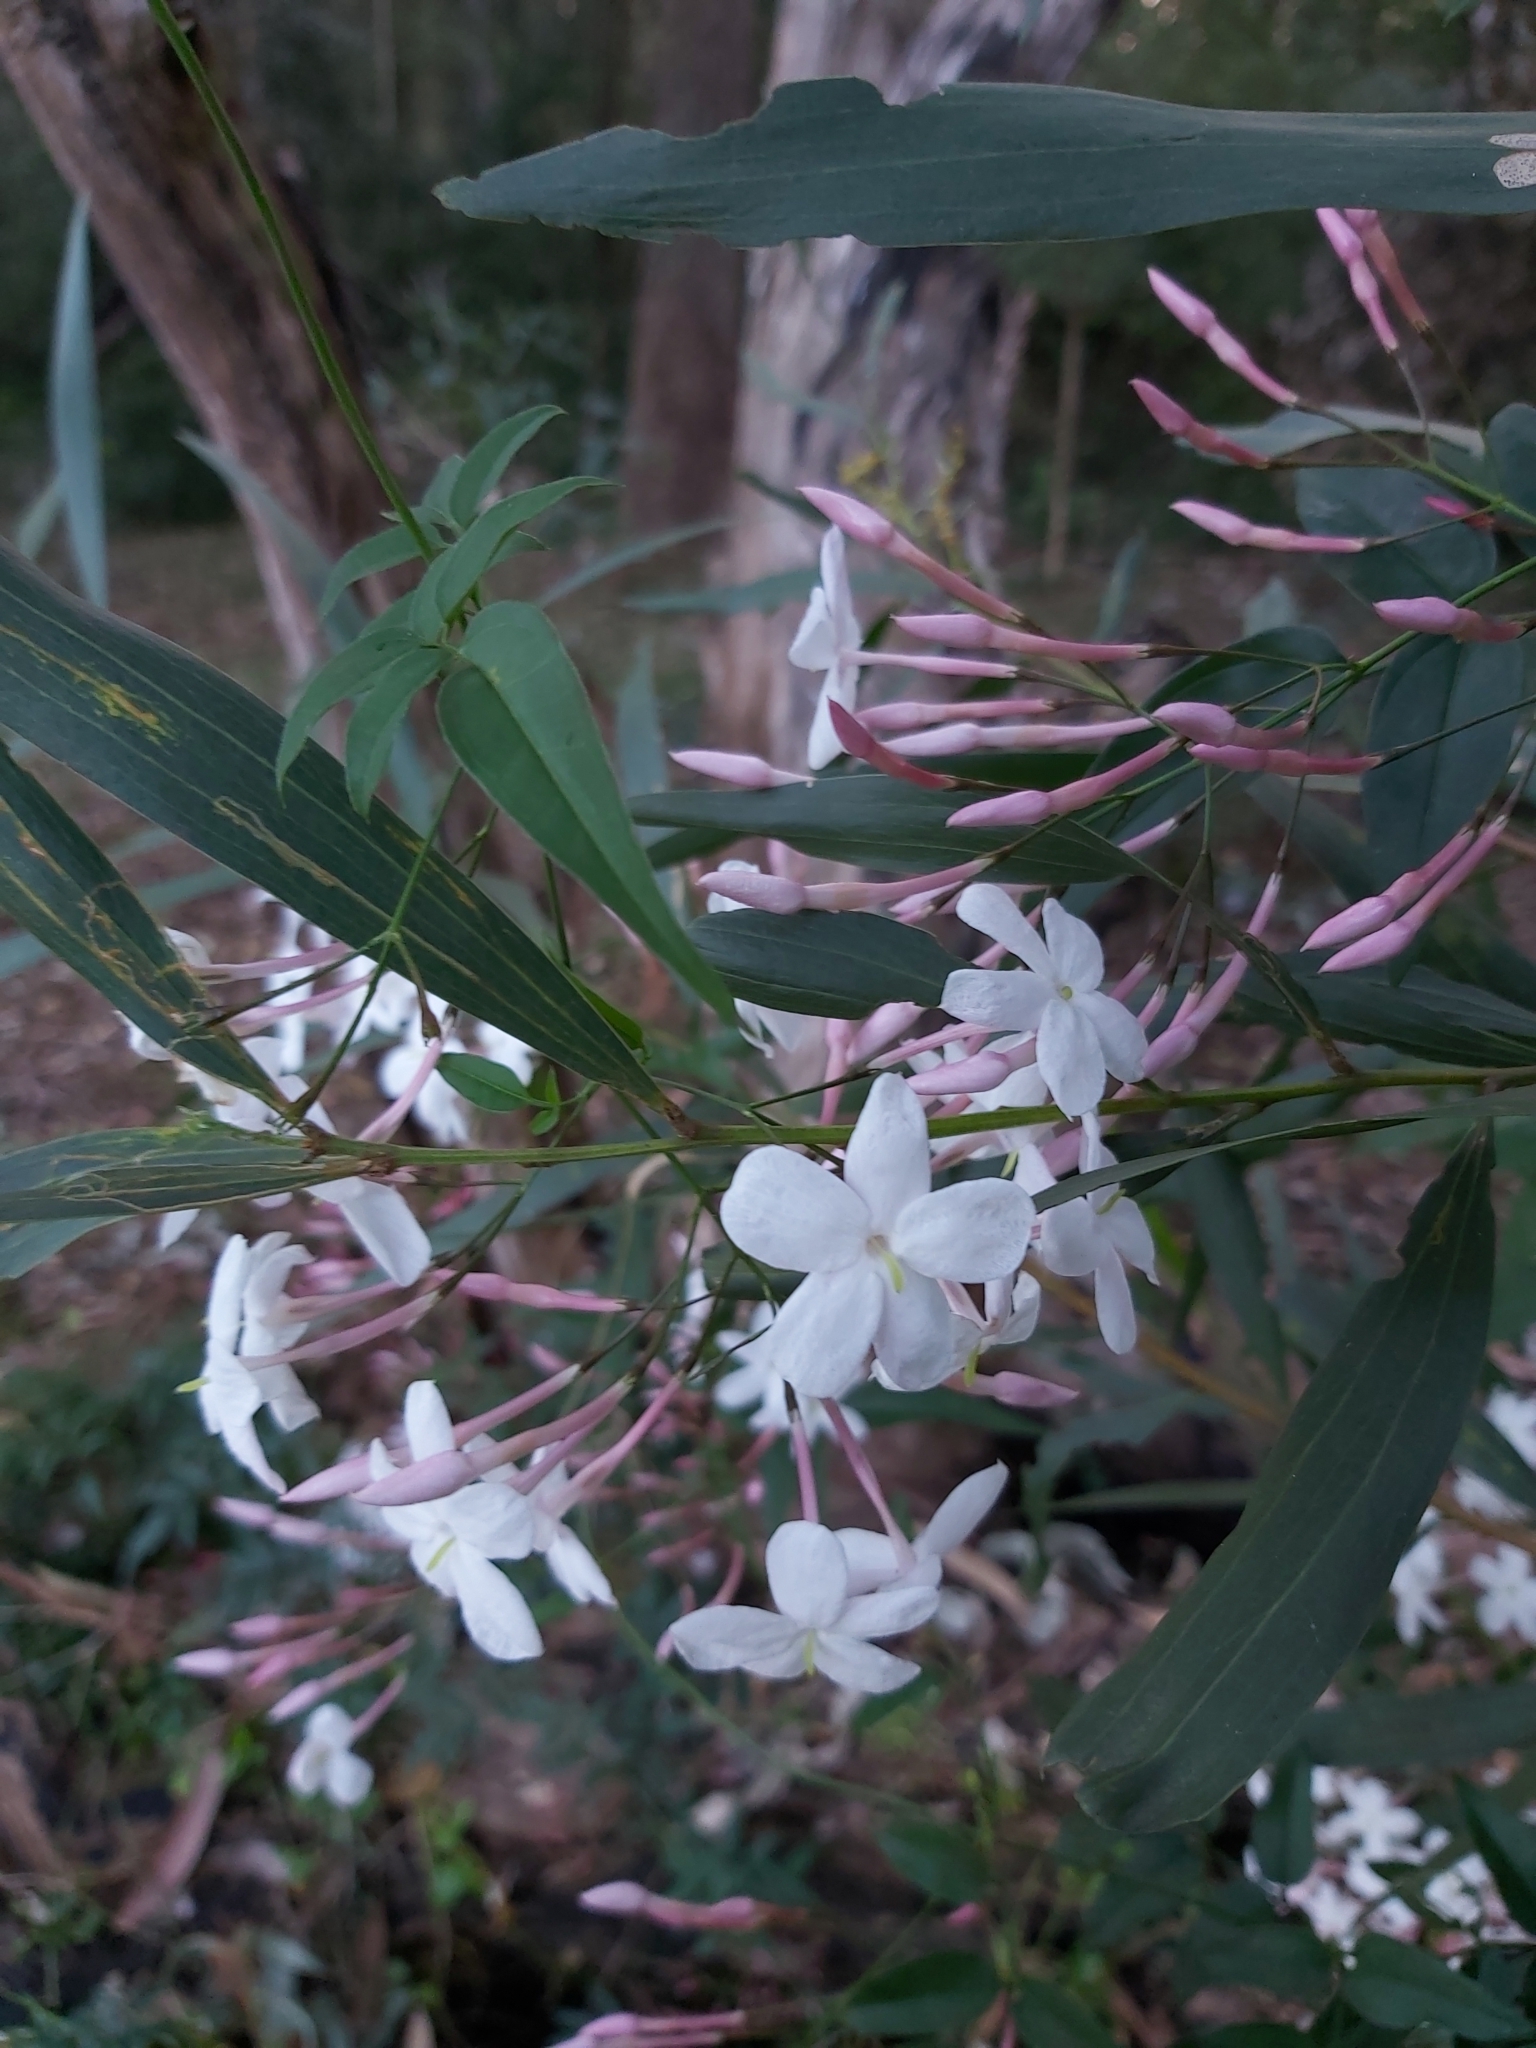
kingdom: Plantae
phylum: Tracheophyta
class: Magnoliopsida
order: Lamiales
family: Oleaceae
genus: Jasminum
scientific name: Jasminum polyanthum
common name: Pink jasmine
